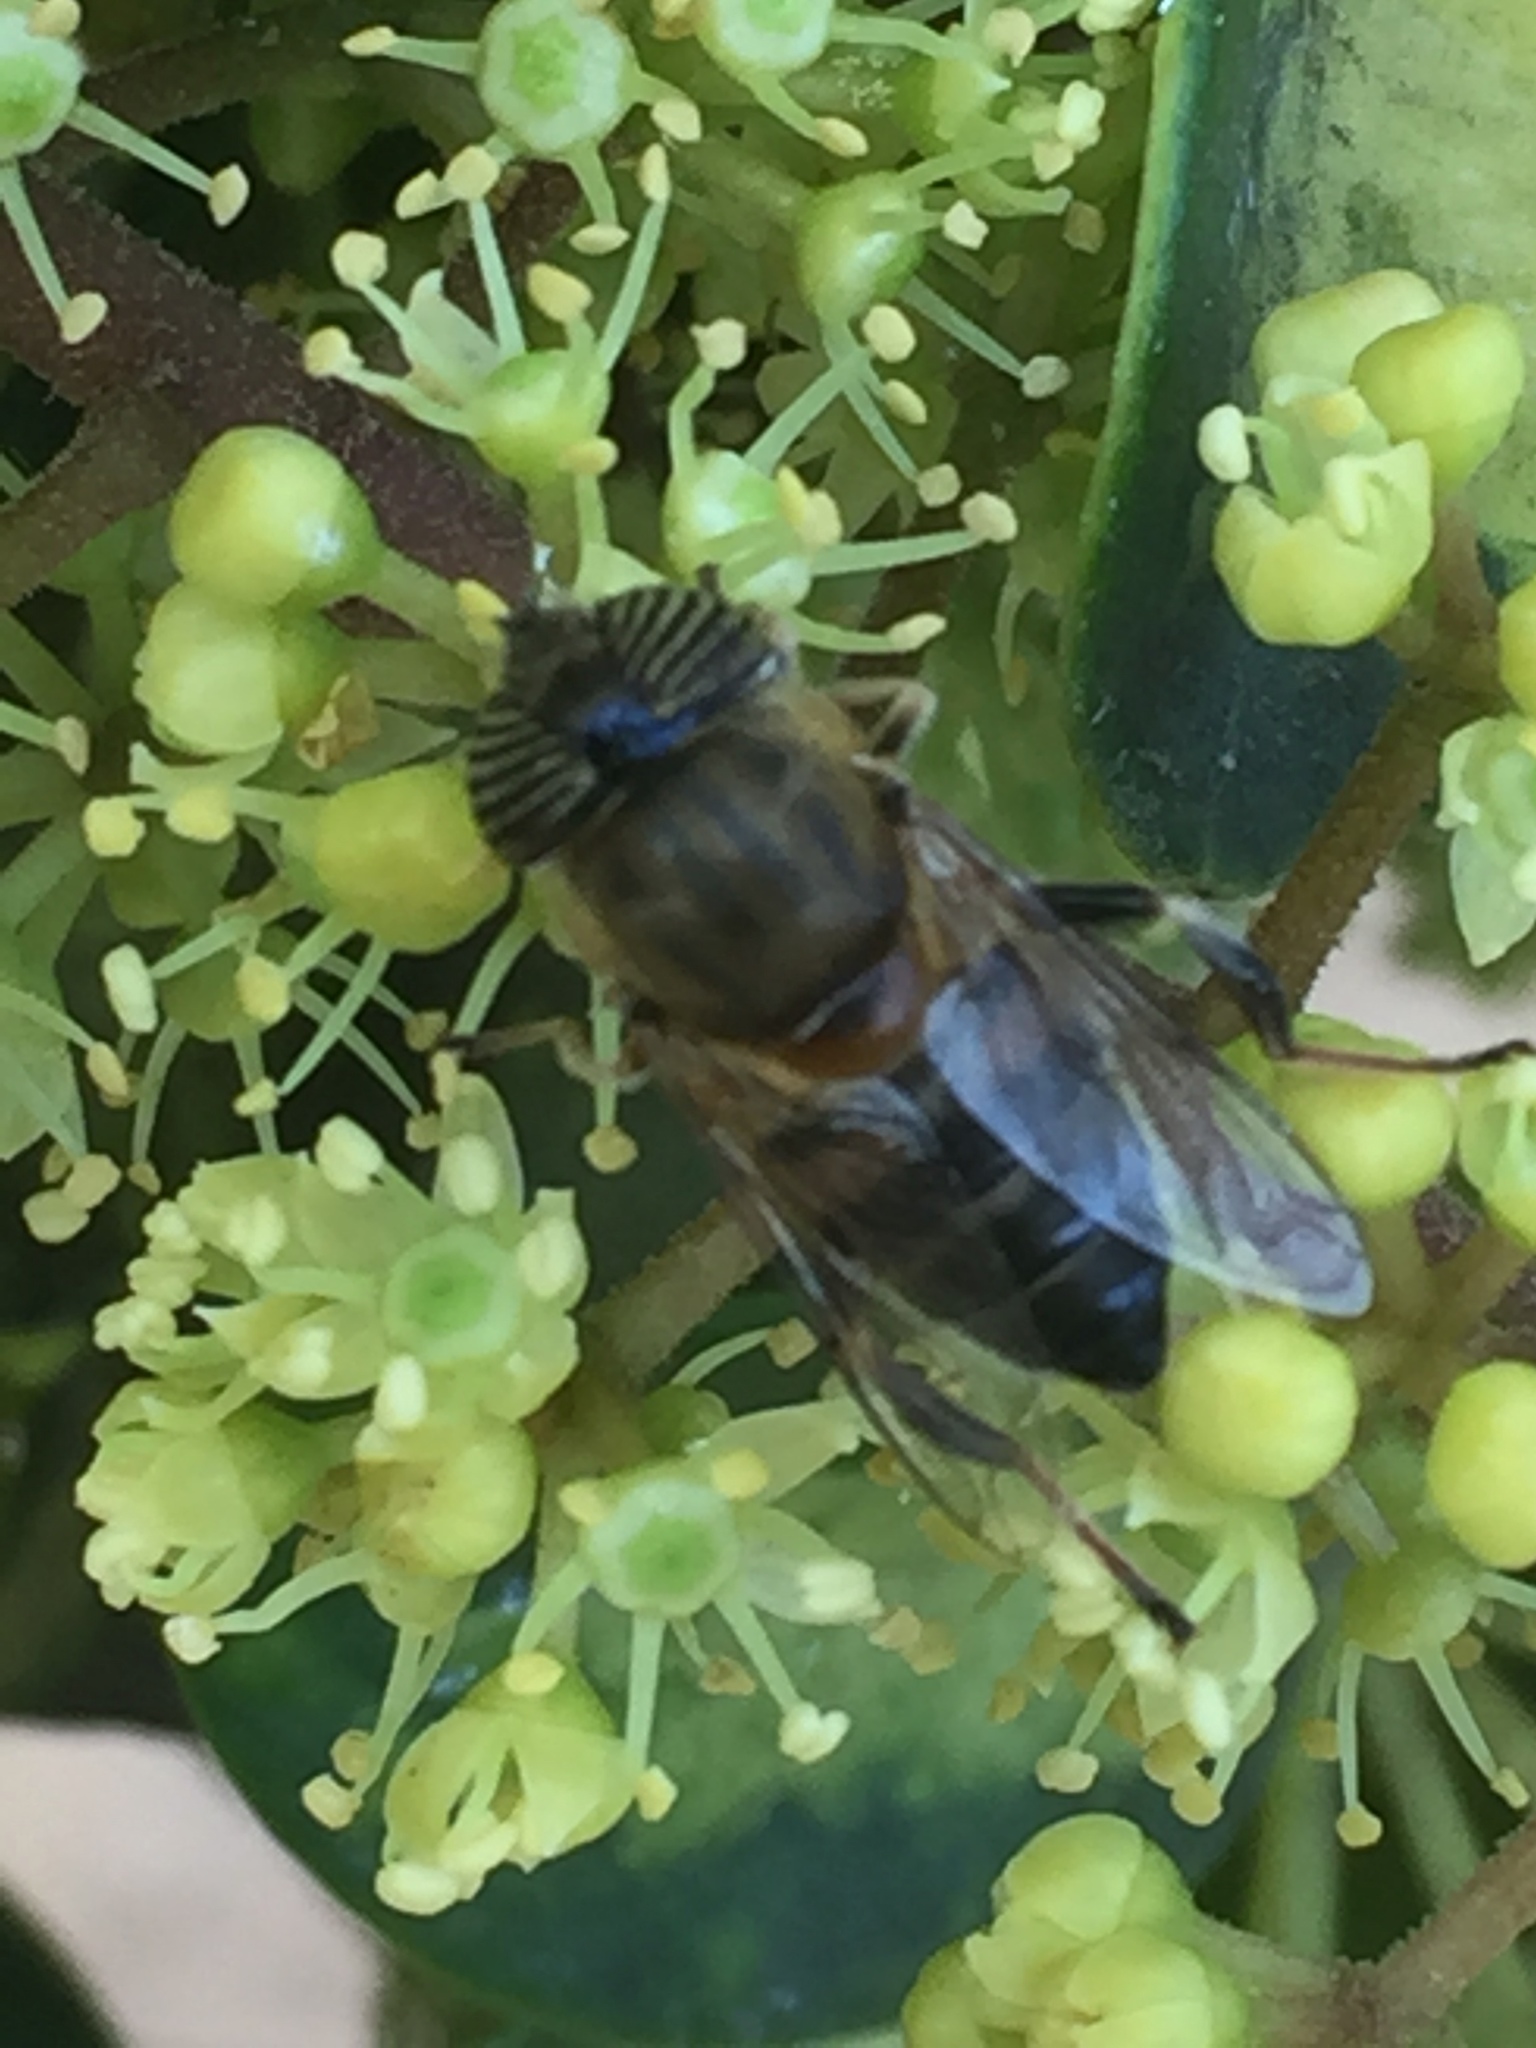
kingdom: Animalia
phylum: Arthropoda
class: Insecta
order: Diptera
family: Syrphidae
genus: Eristalinus
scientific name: Eristalinus taeniops
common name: Syrphid fly
